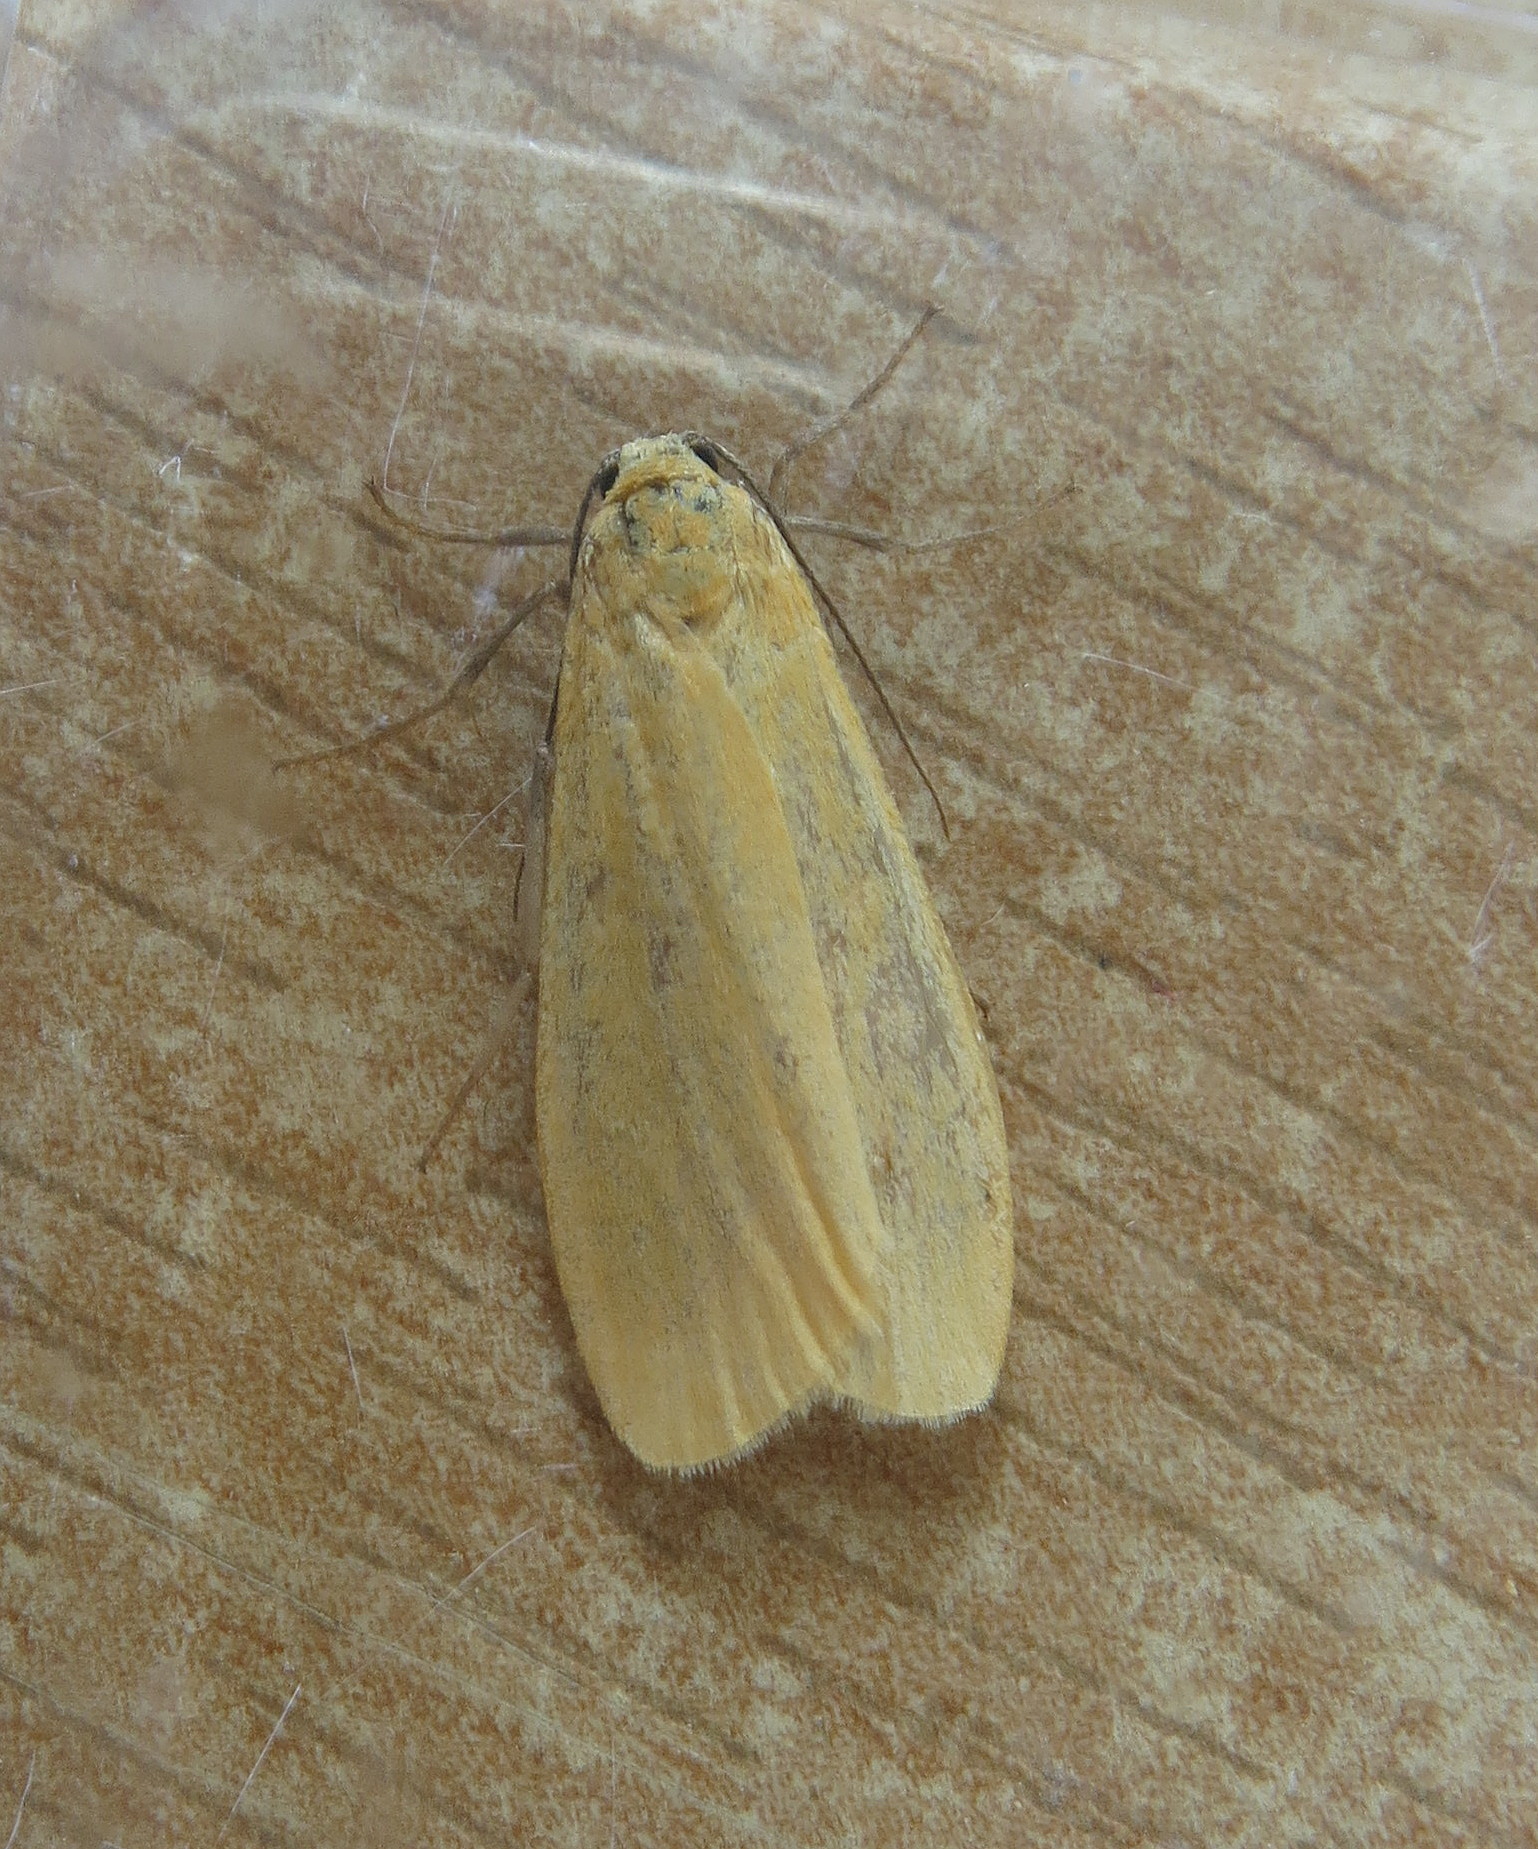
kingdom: Animalia
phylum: Arthropoda
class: Insecta
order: Lepidoptera
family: Erebidae
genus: Wittia
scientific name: Wittia sororcula
